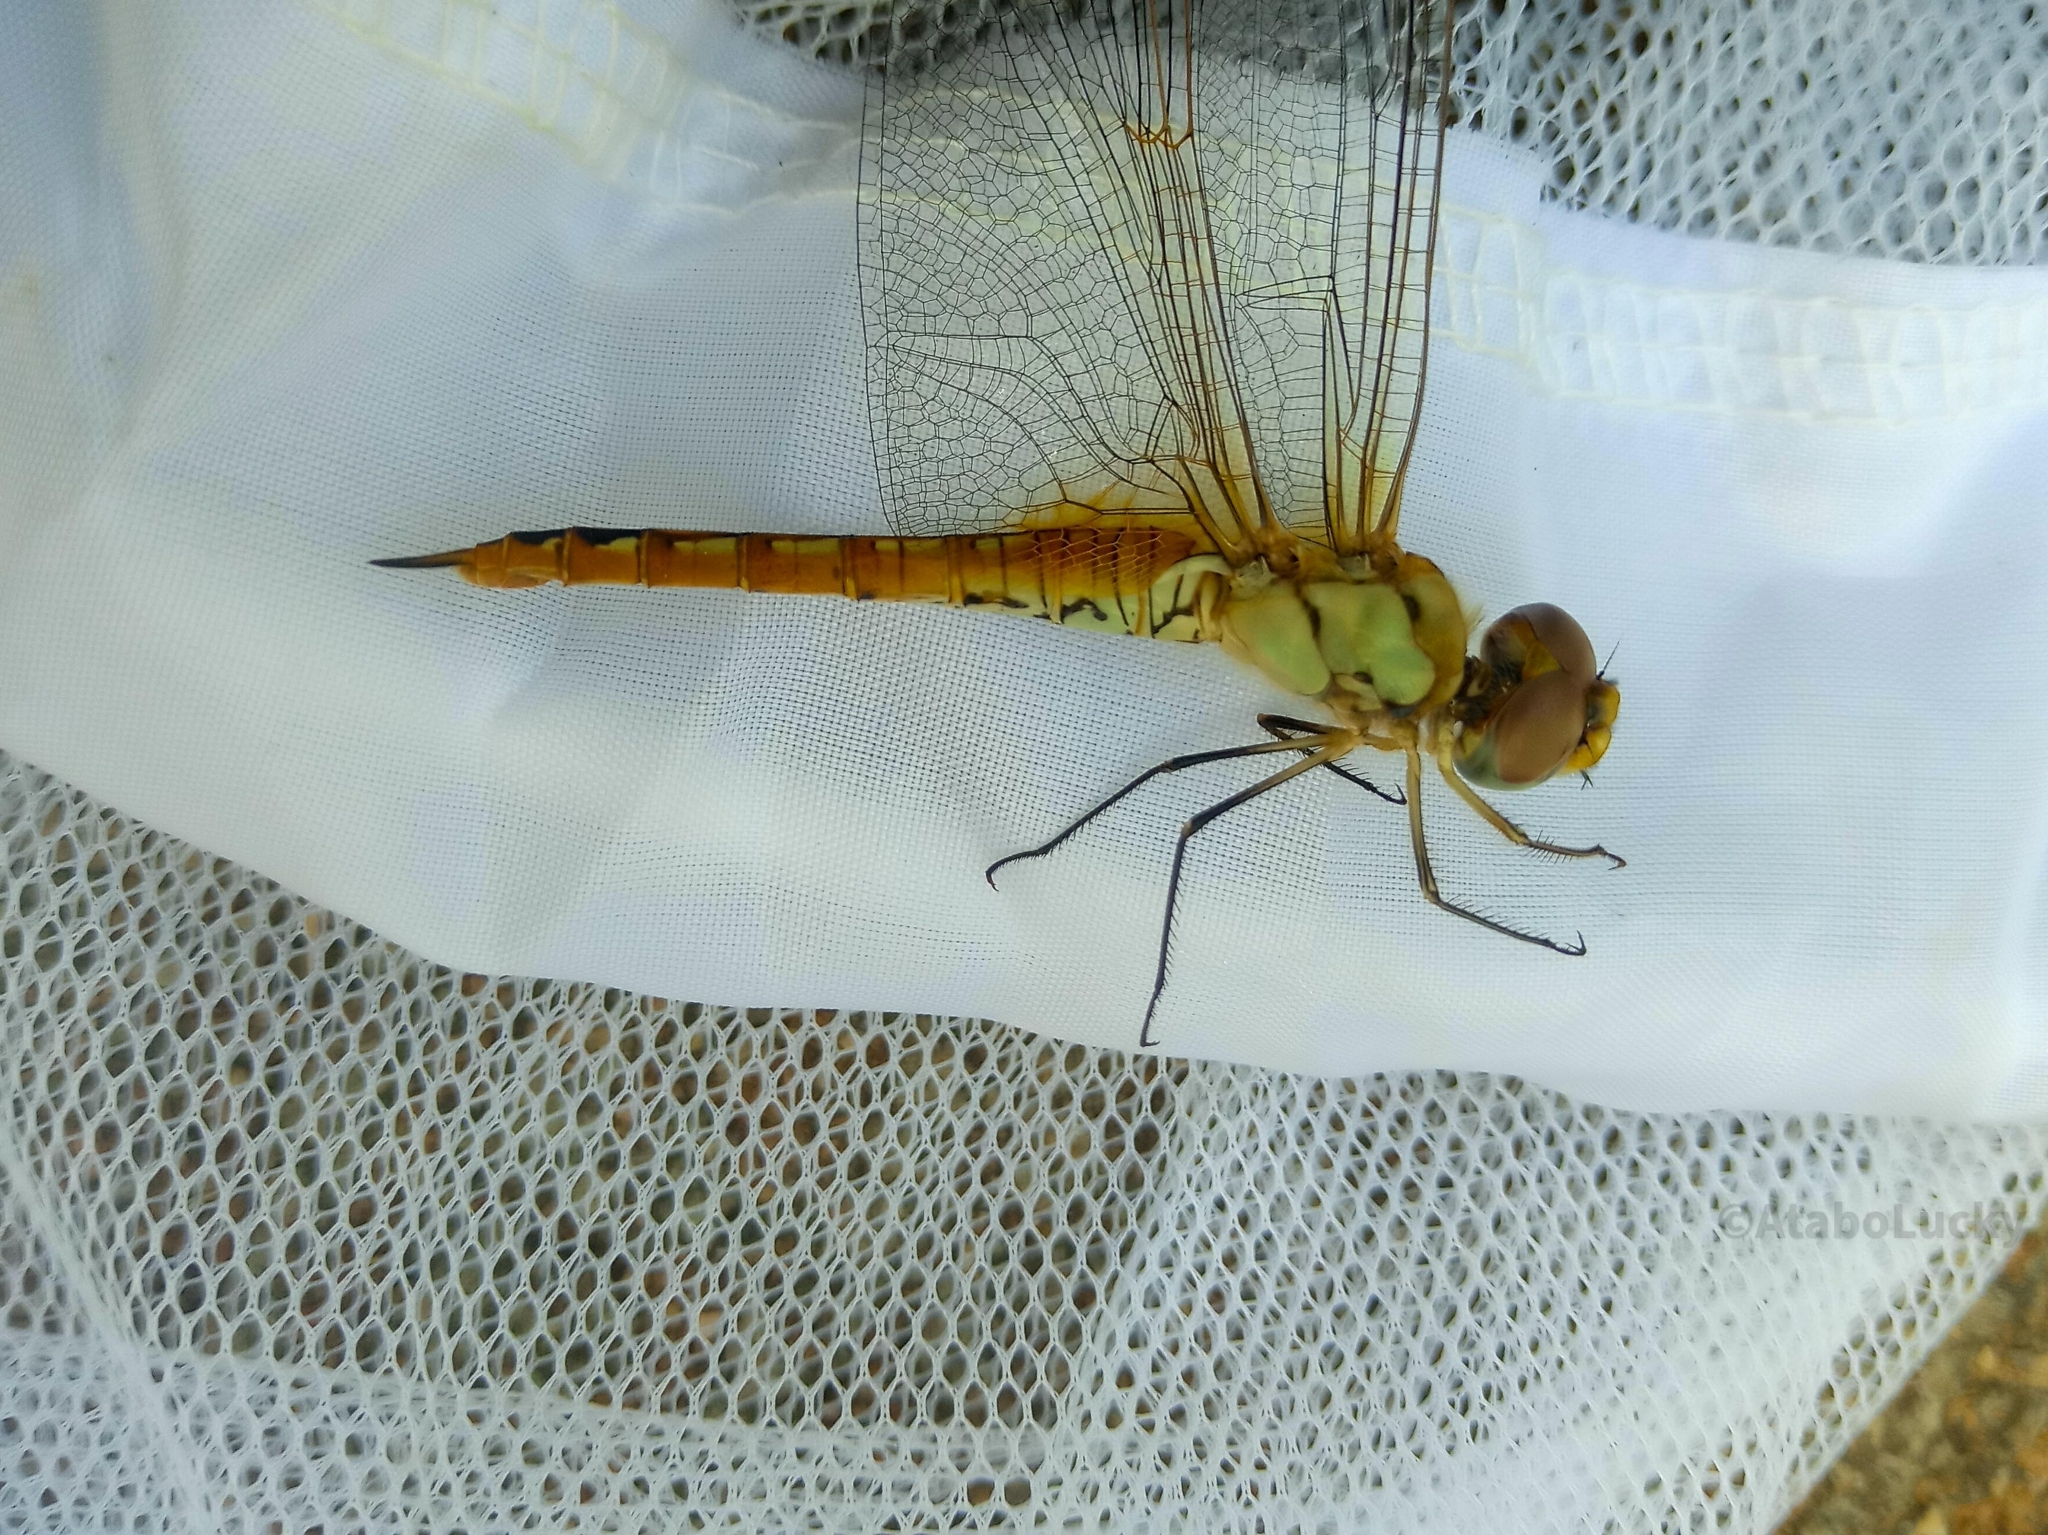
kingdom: Animalia
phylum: Arthropoda
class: Insecta
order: Odonata
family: Libellulidae
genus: Pantala
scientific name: Pantala flavescens
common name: Wandering glider
